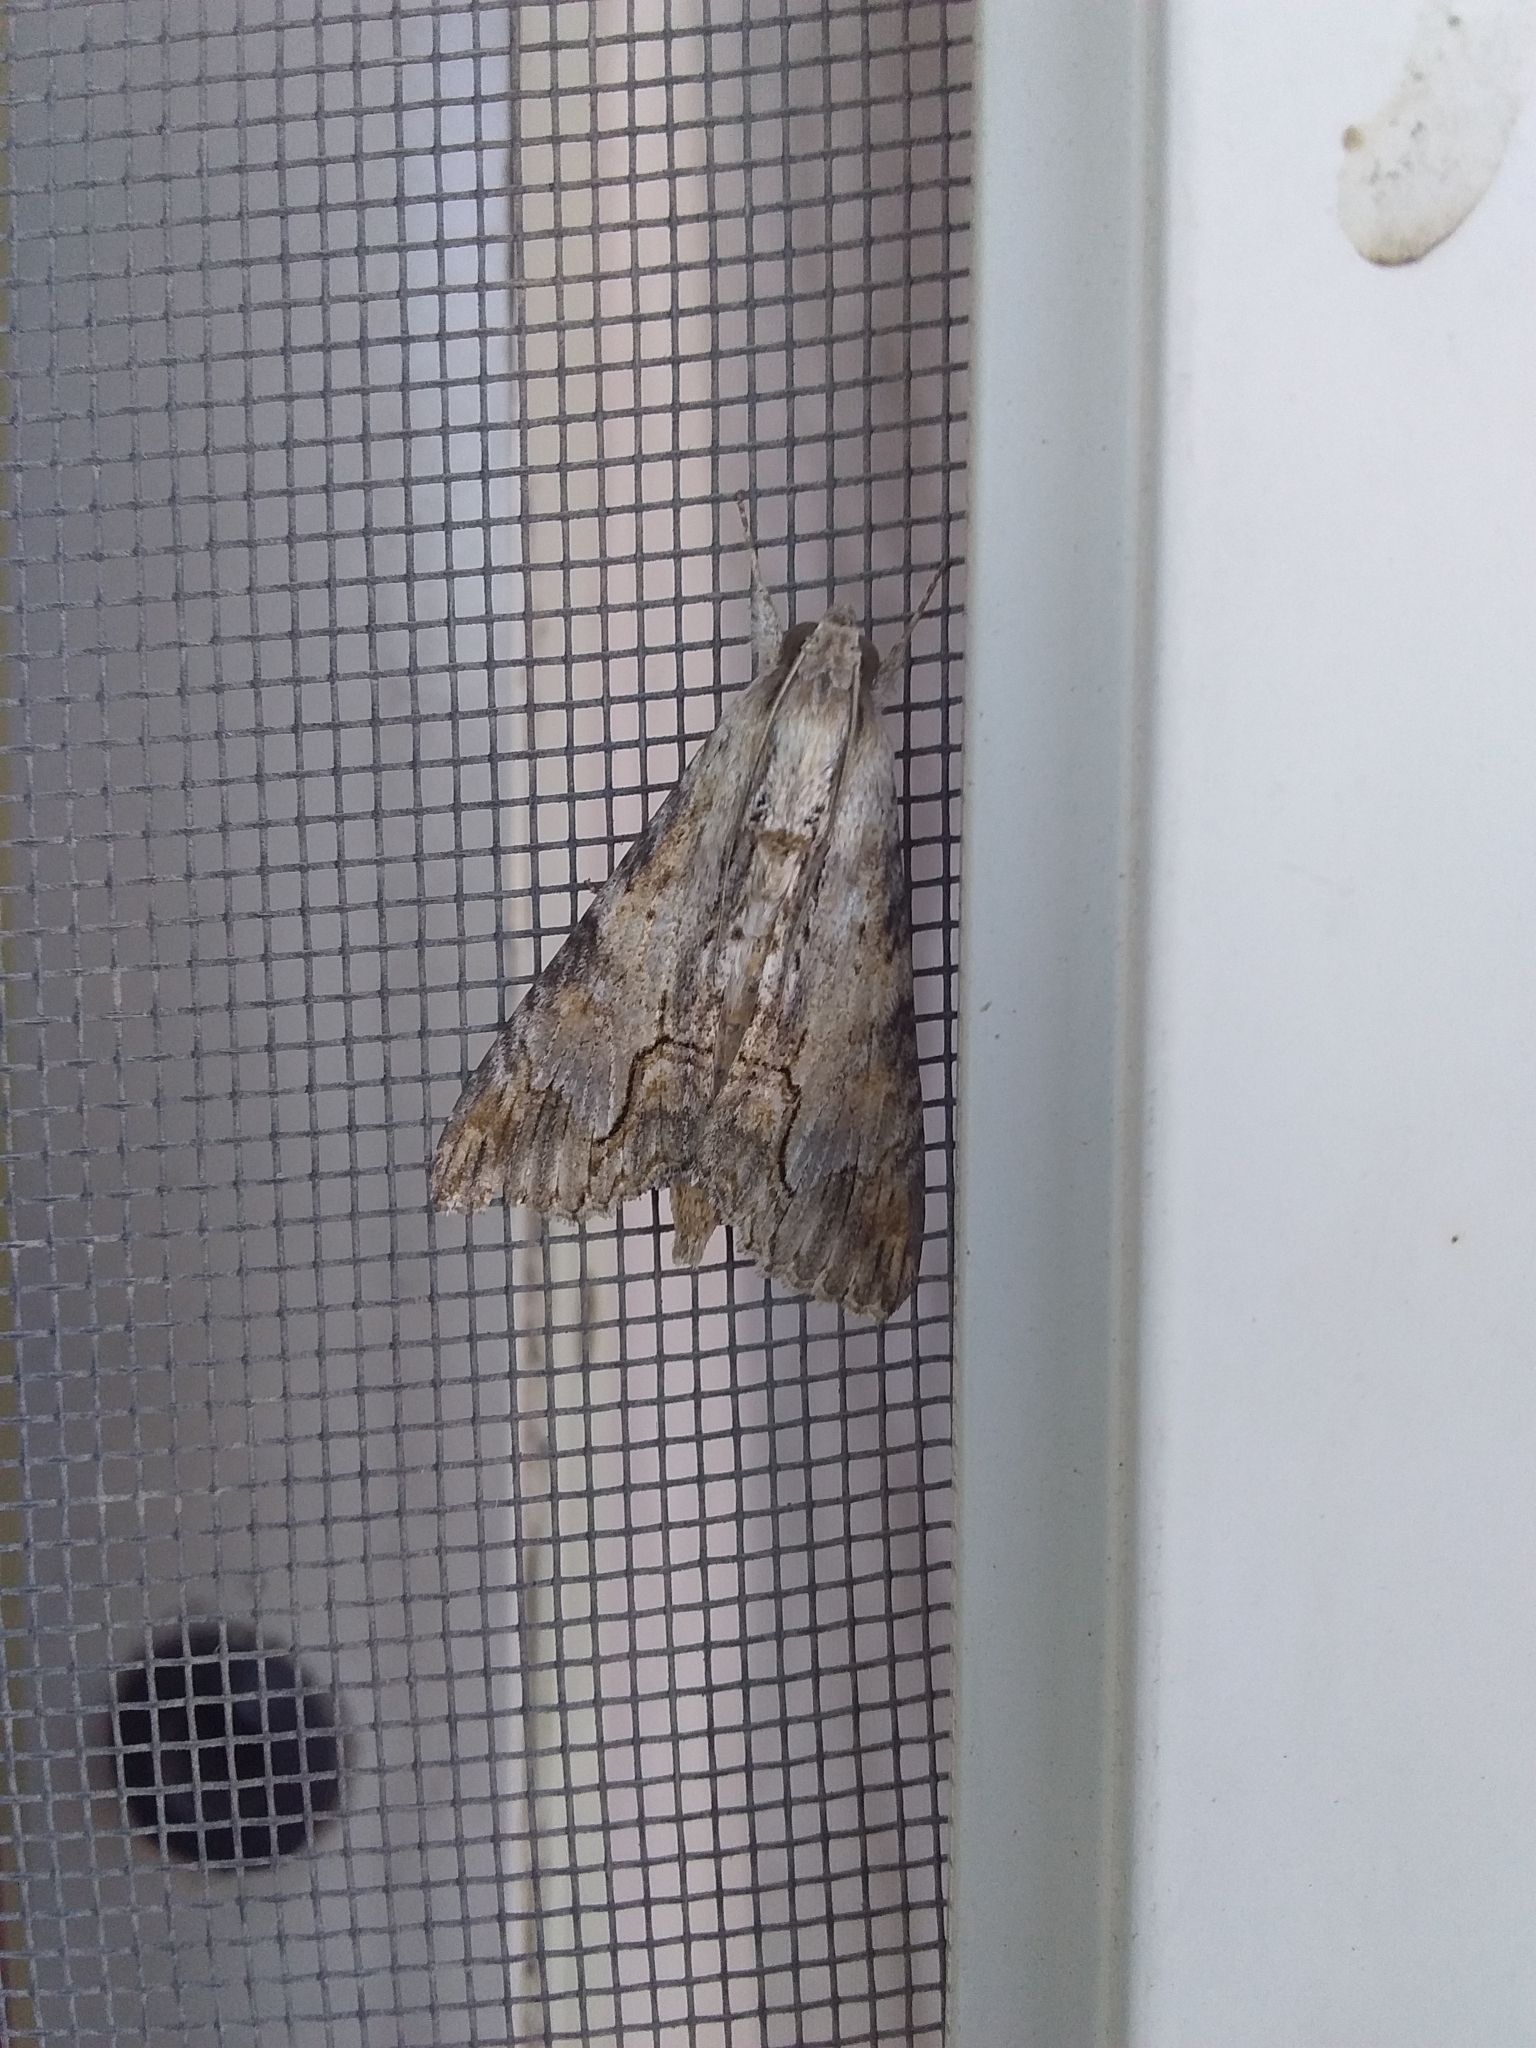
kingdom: Animalia
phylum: Arthropoda
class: Insecta
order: Lepidoptera
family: Erebidae
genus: Melipotis
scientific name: Melipotis acontioides
